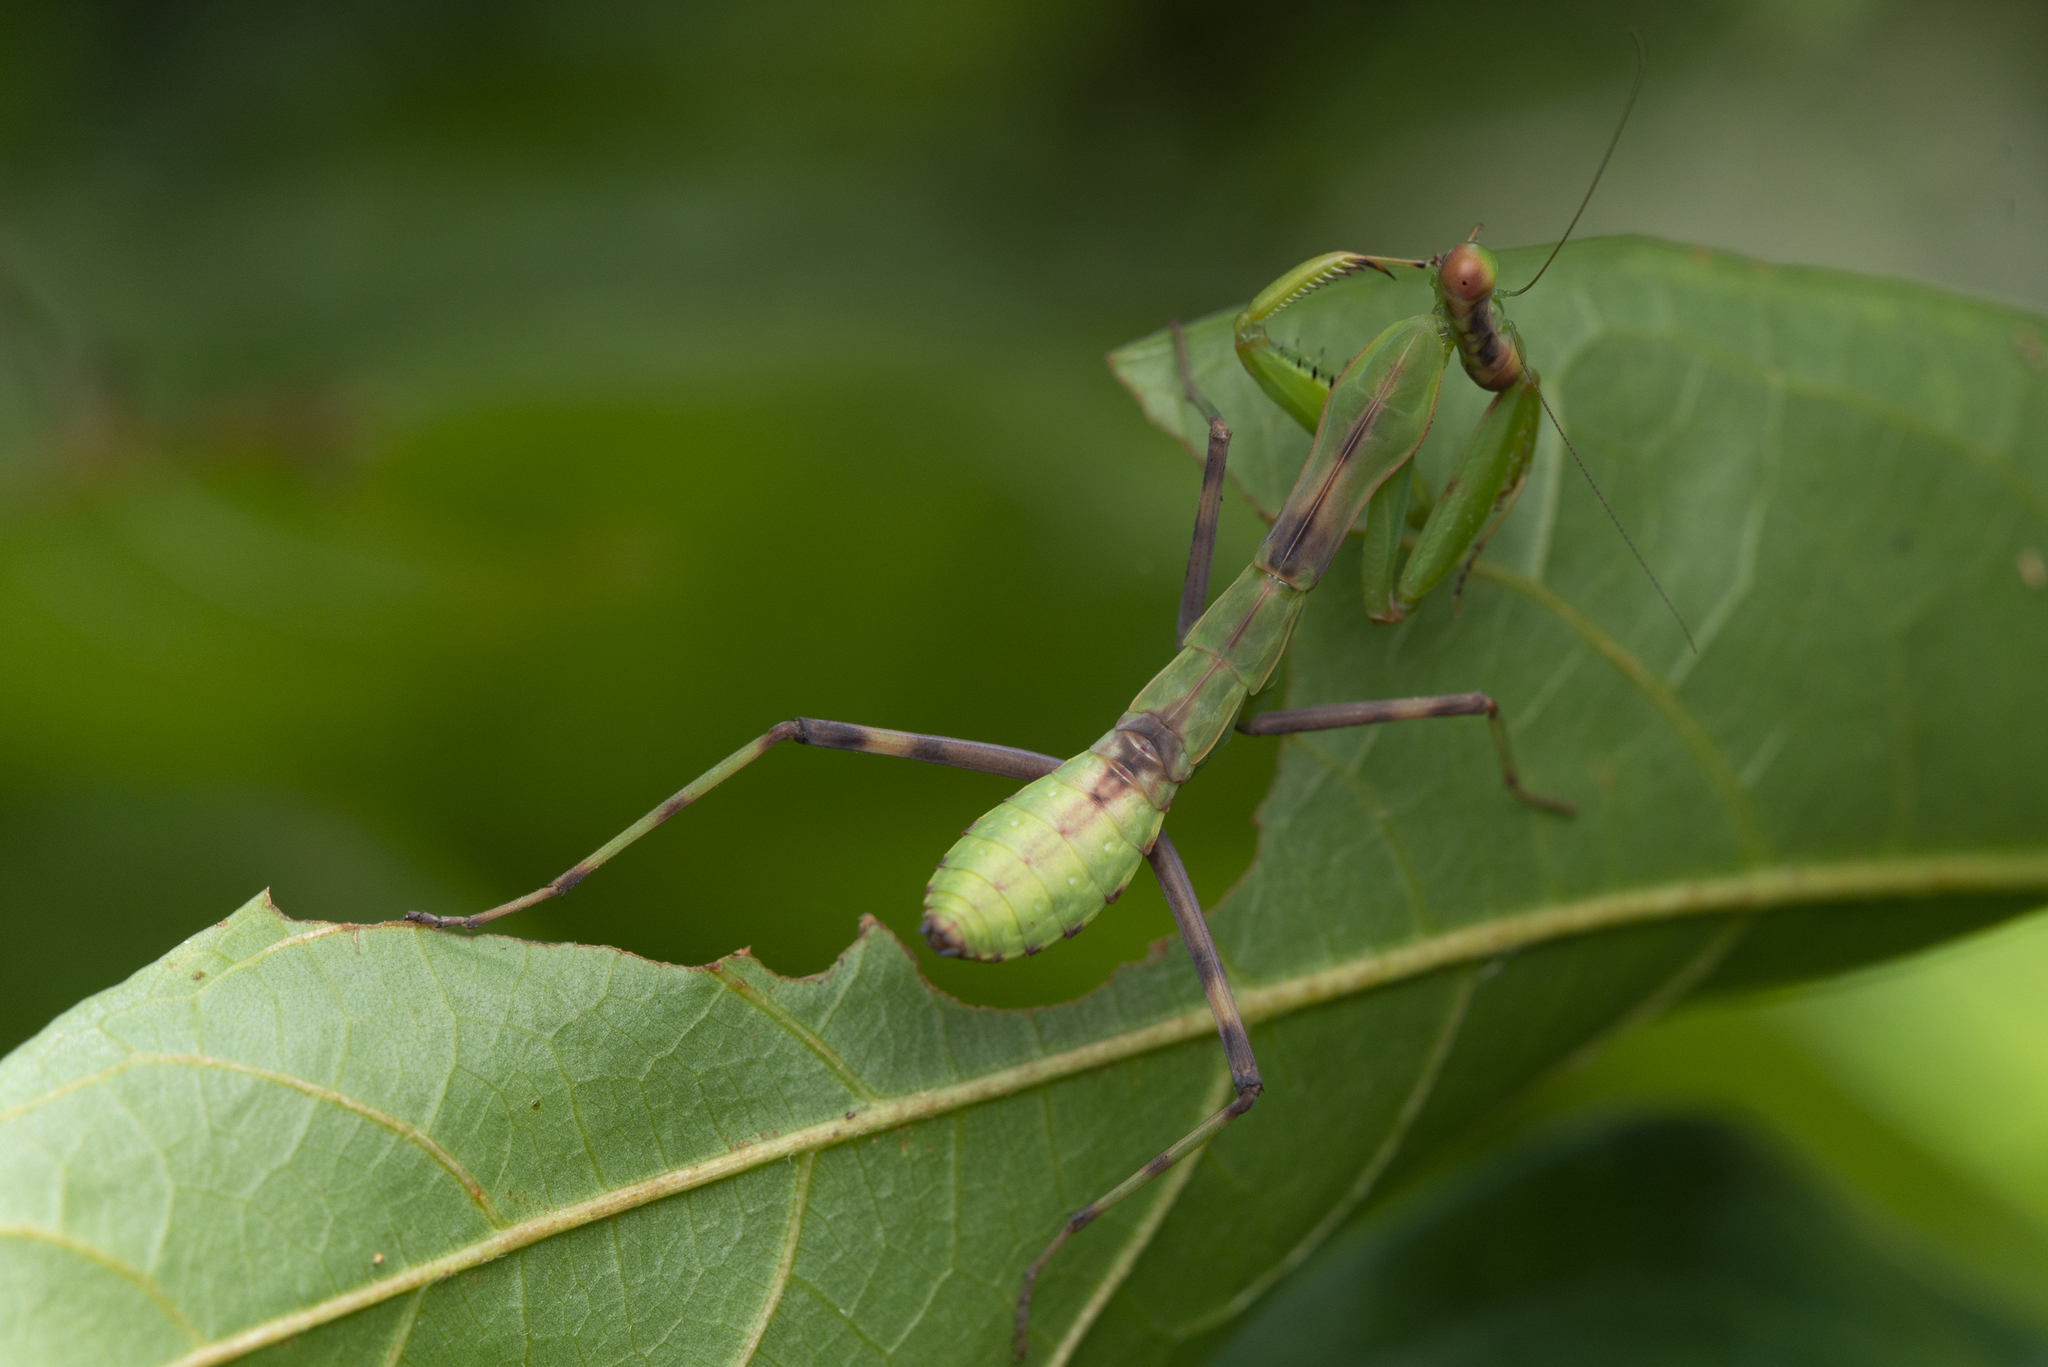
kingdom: Animalia
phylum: Arthropoda
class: Insecta
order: Mantodea
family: Mantidae
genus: Hierodula
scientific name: Hierodula patellifera
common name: Asian mantis
